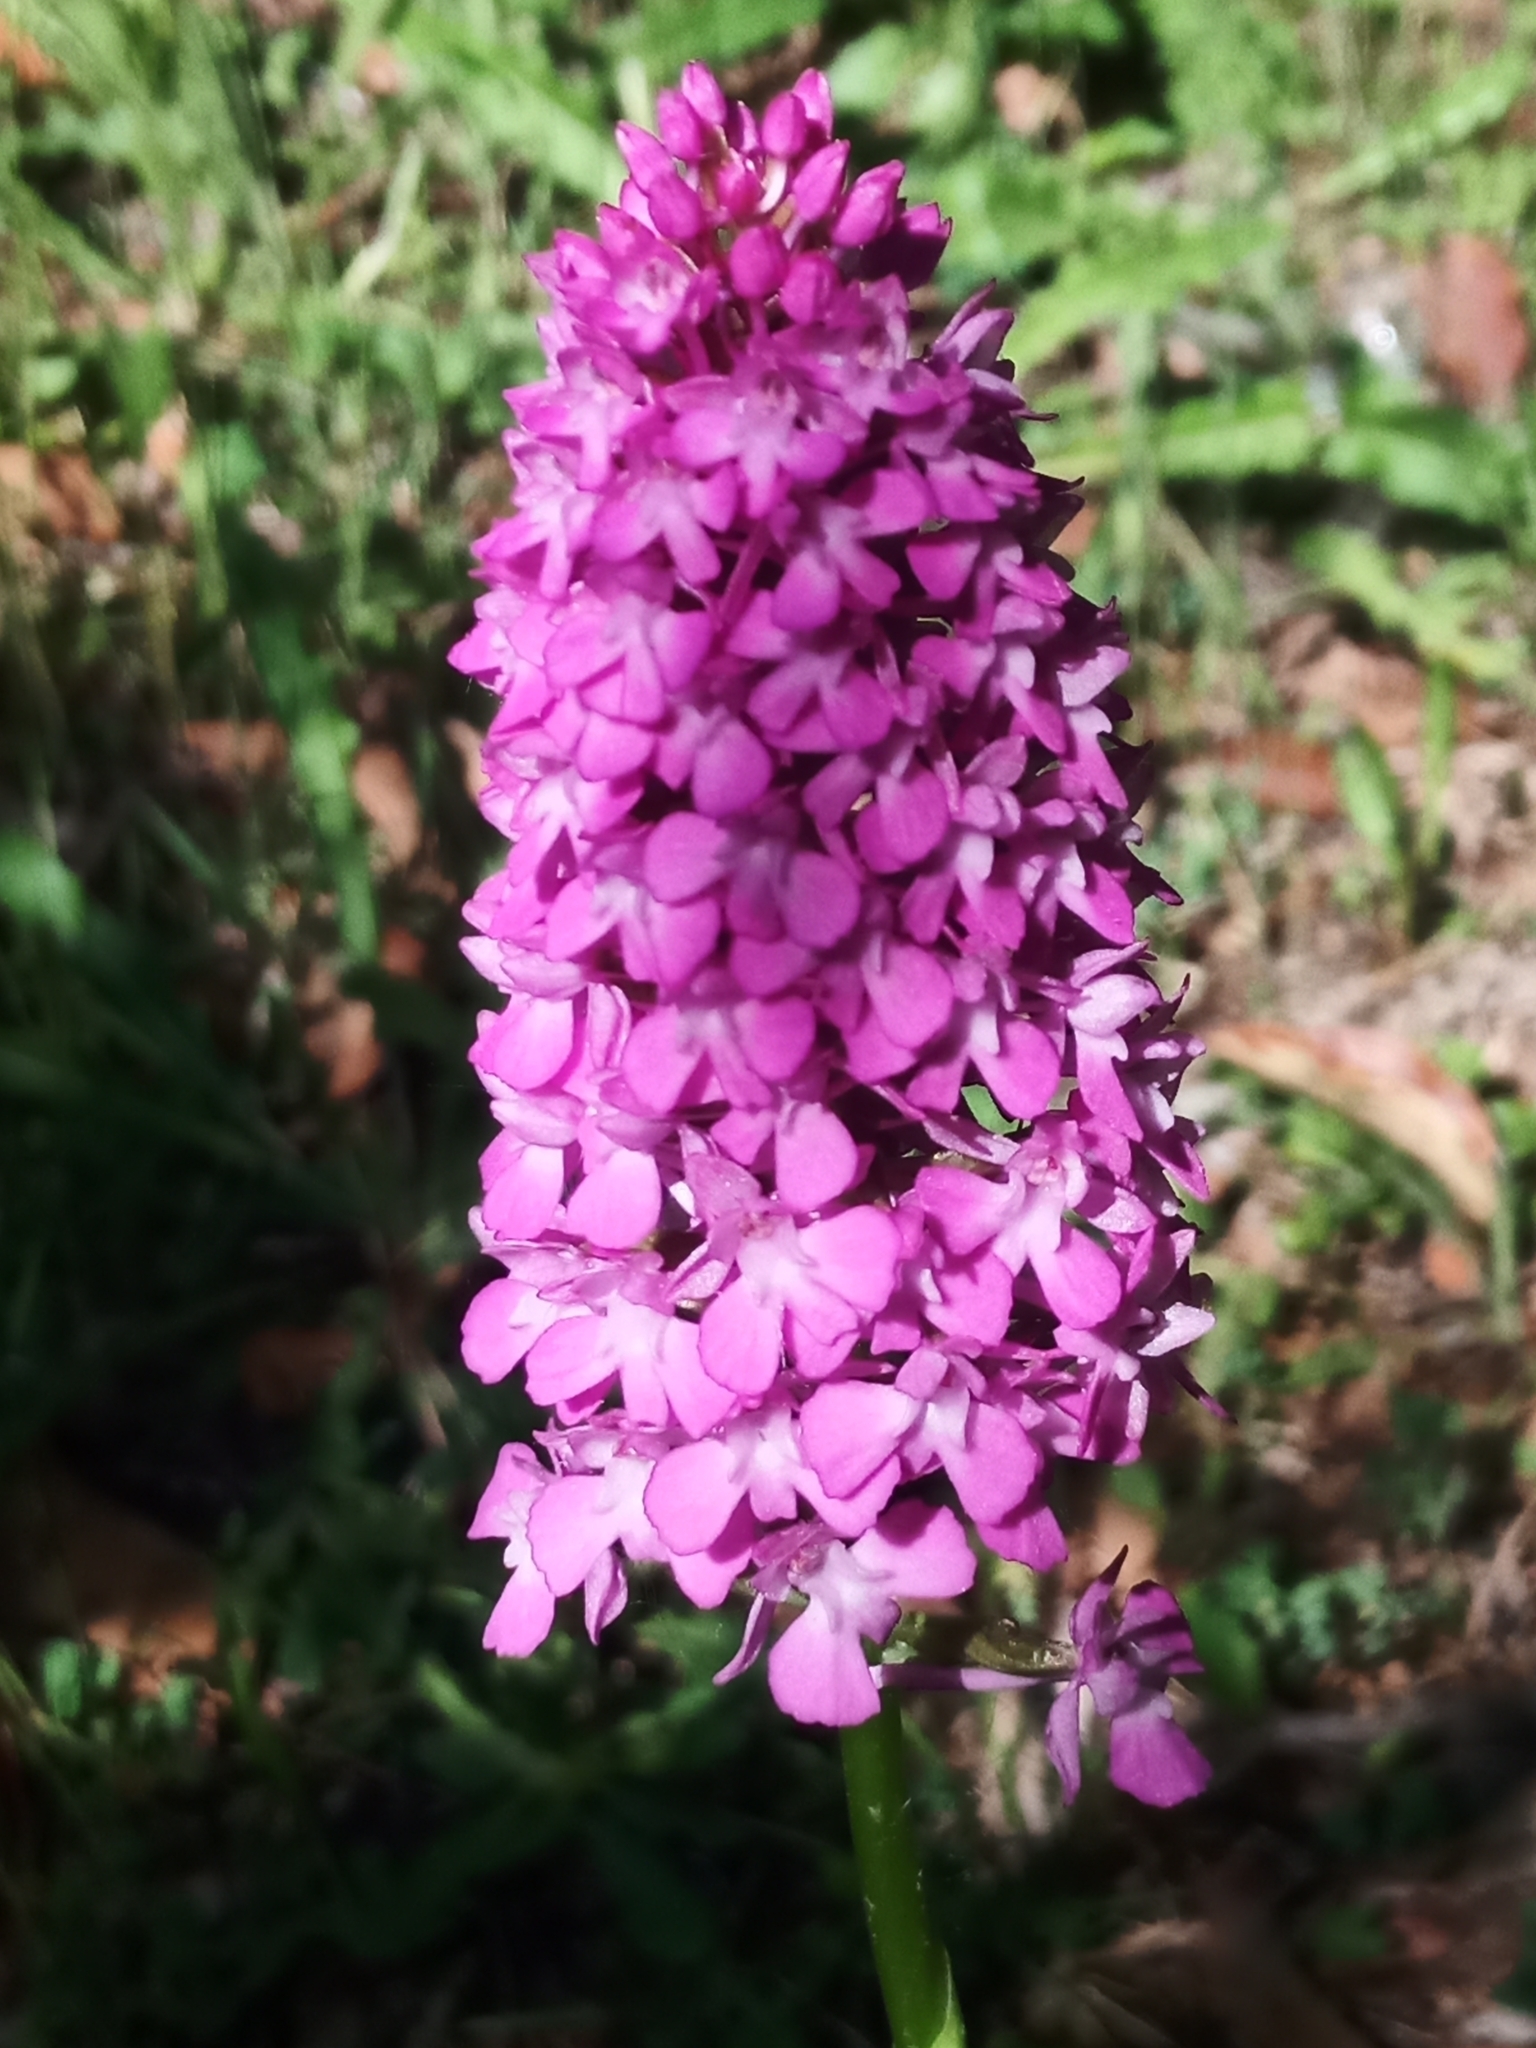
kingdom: Plantae
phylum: Tracheophyta
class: Liliopsida
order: Asparagales
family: Orchidaceae
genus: Anacamptis
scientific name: Anacamptis pyramidalis
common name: Pyramidal orchid
